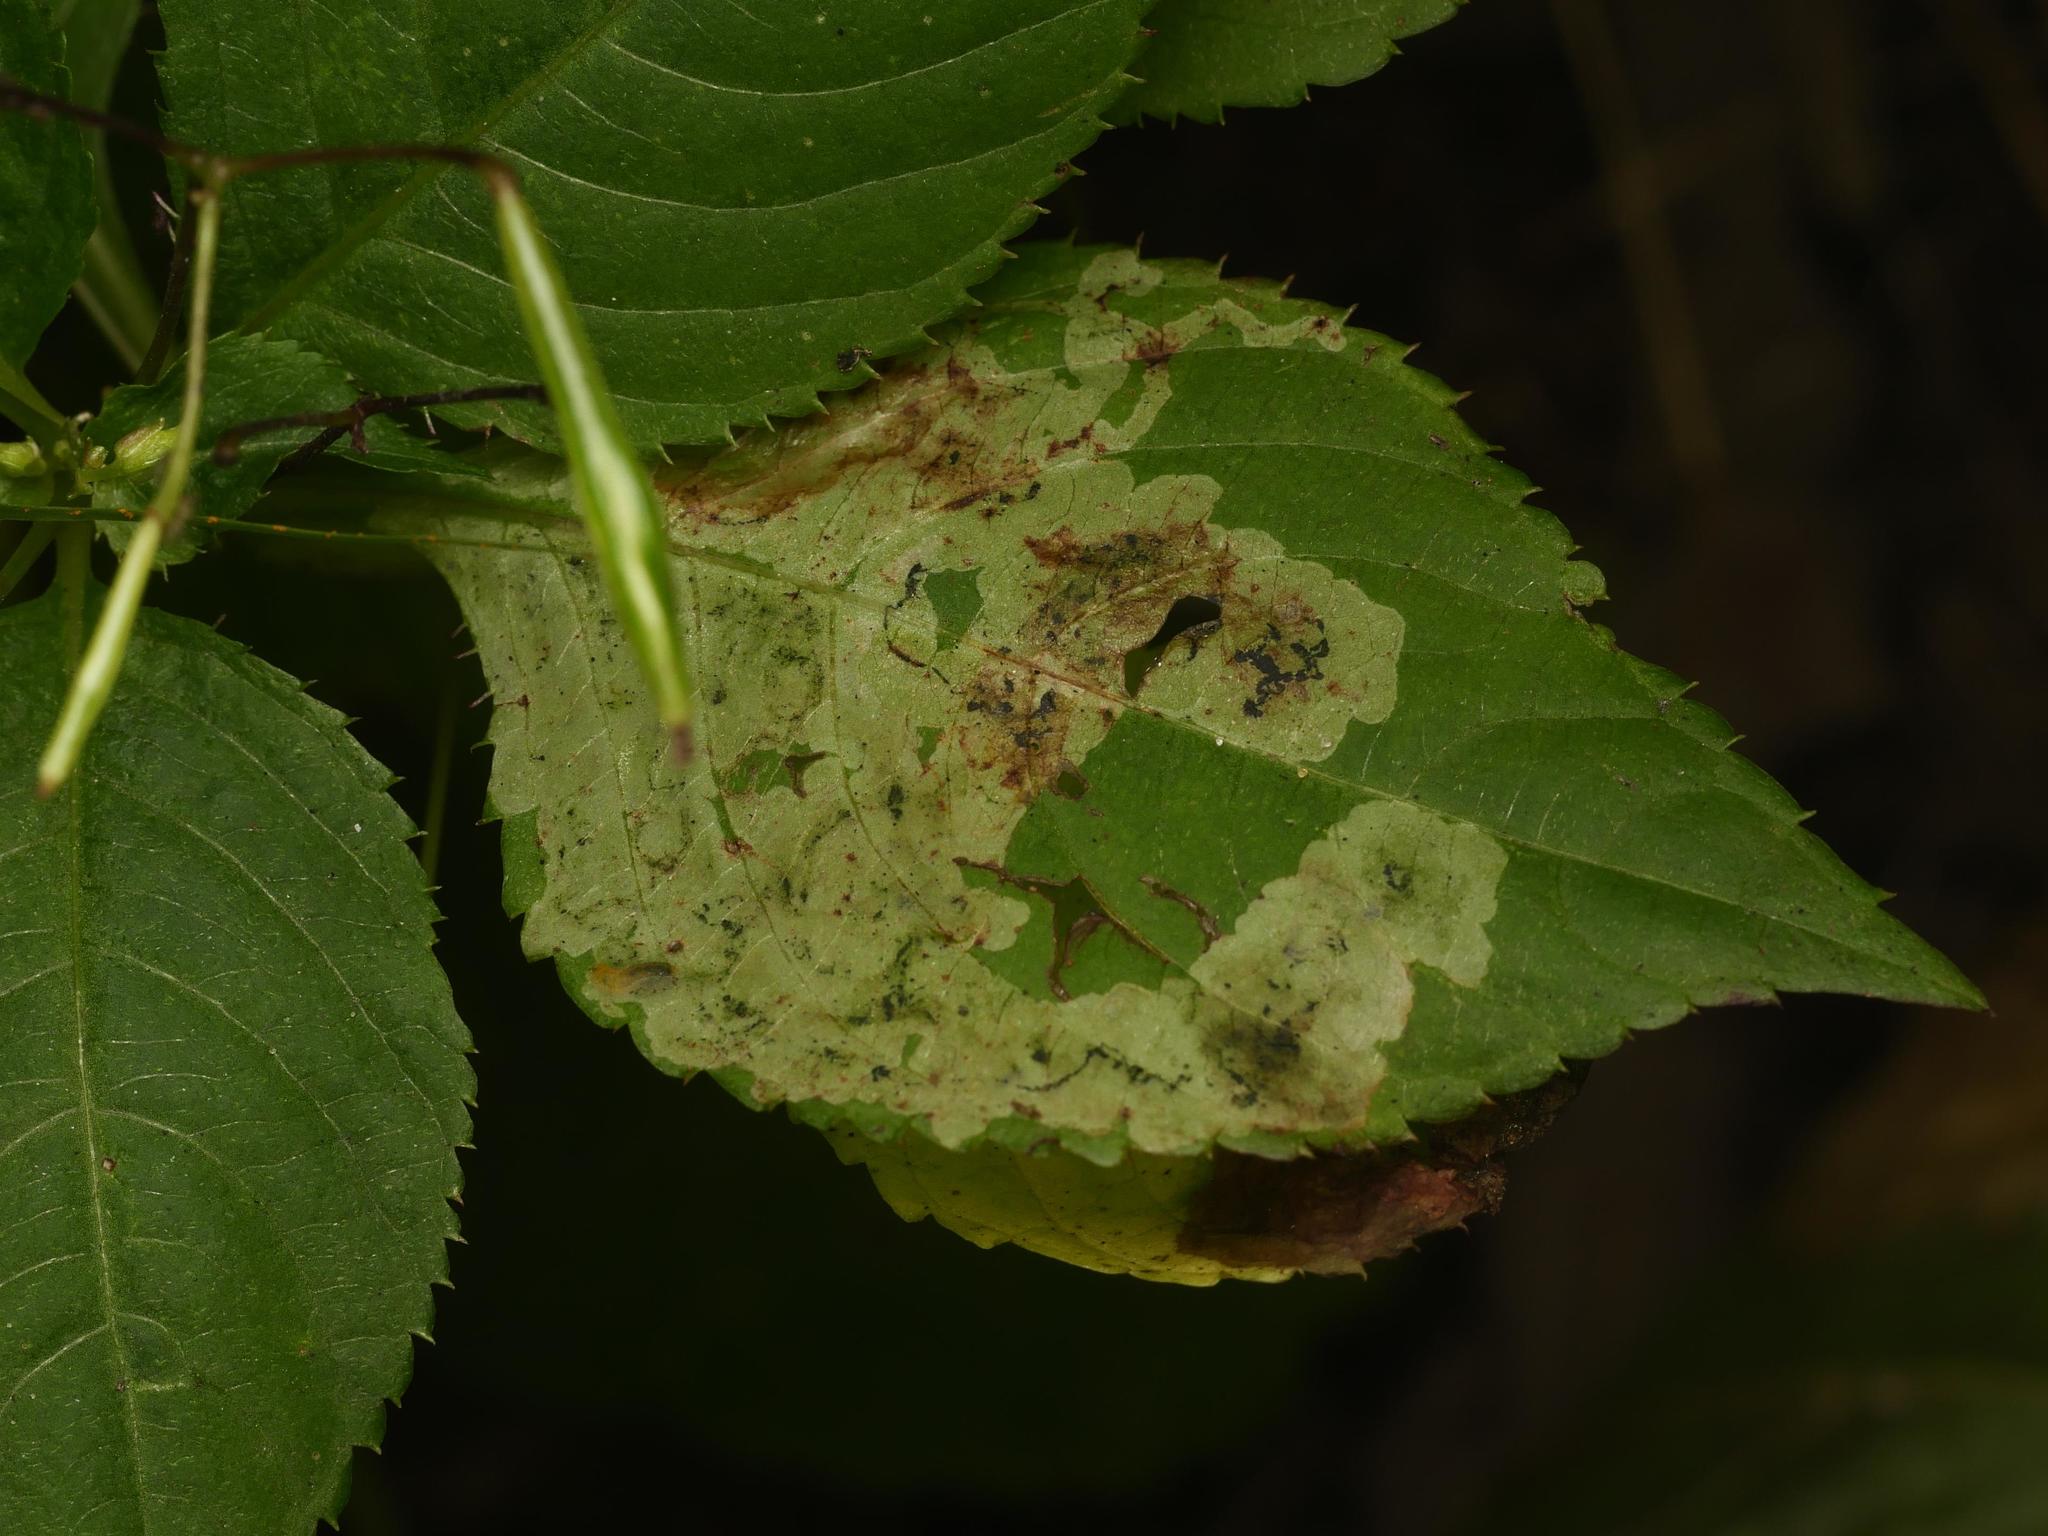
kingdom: Animalia
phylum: Arthropoda
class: Insecta
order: Diptera
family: Agromyzidae
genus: Phytoliriomyza
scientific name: Phytoliriomyza melampyga
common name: Jewelweed leaf-miner fly
